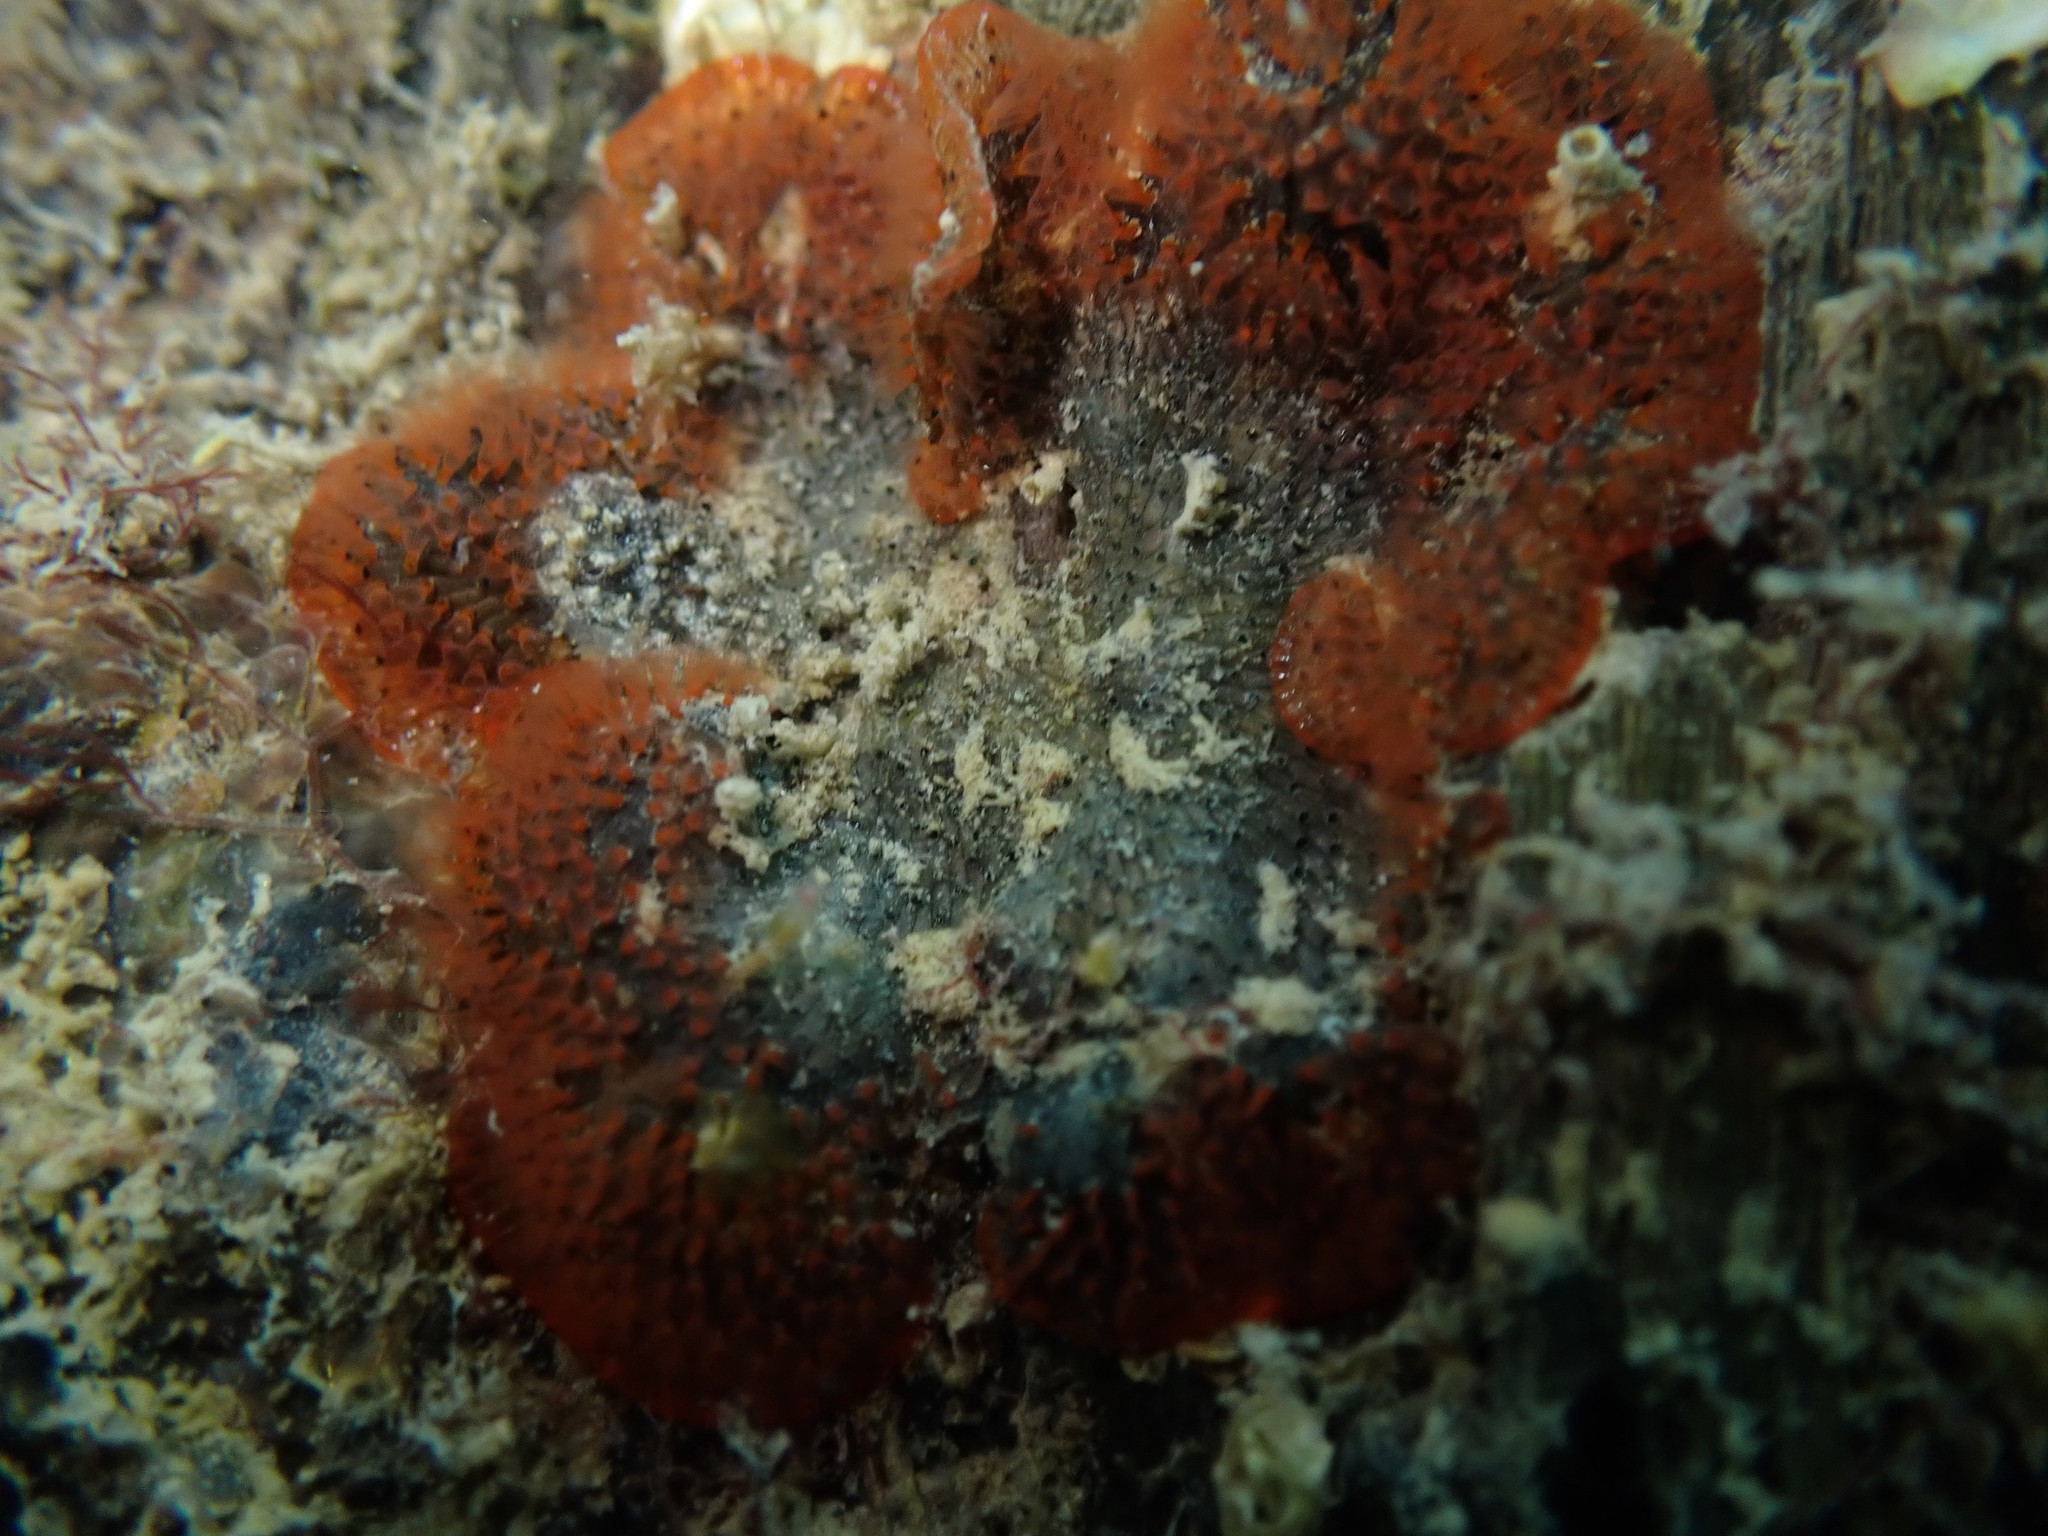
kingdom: Animalia
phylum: Bryozoa
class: Gymnolaemata
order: Cheilostomatida
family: Watersiporidae
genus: Watersipora
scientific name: Watersipora subatra
